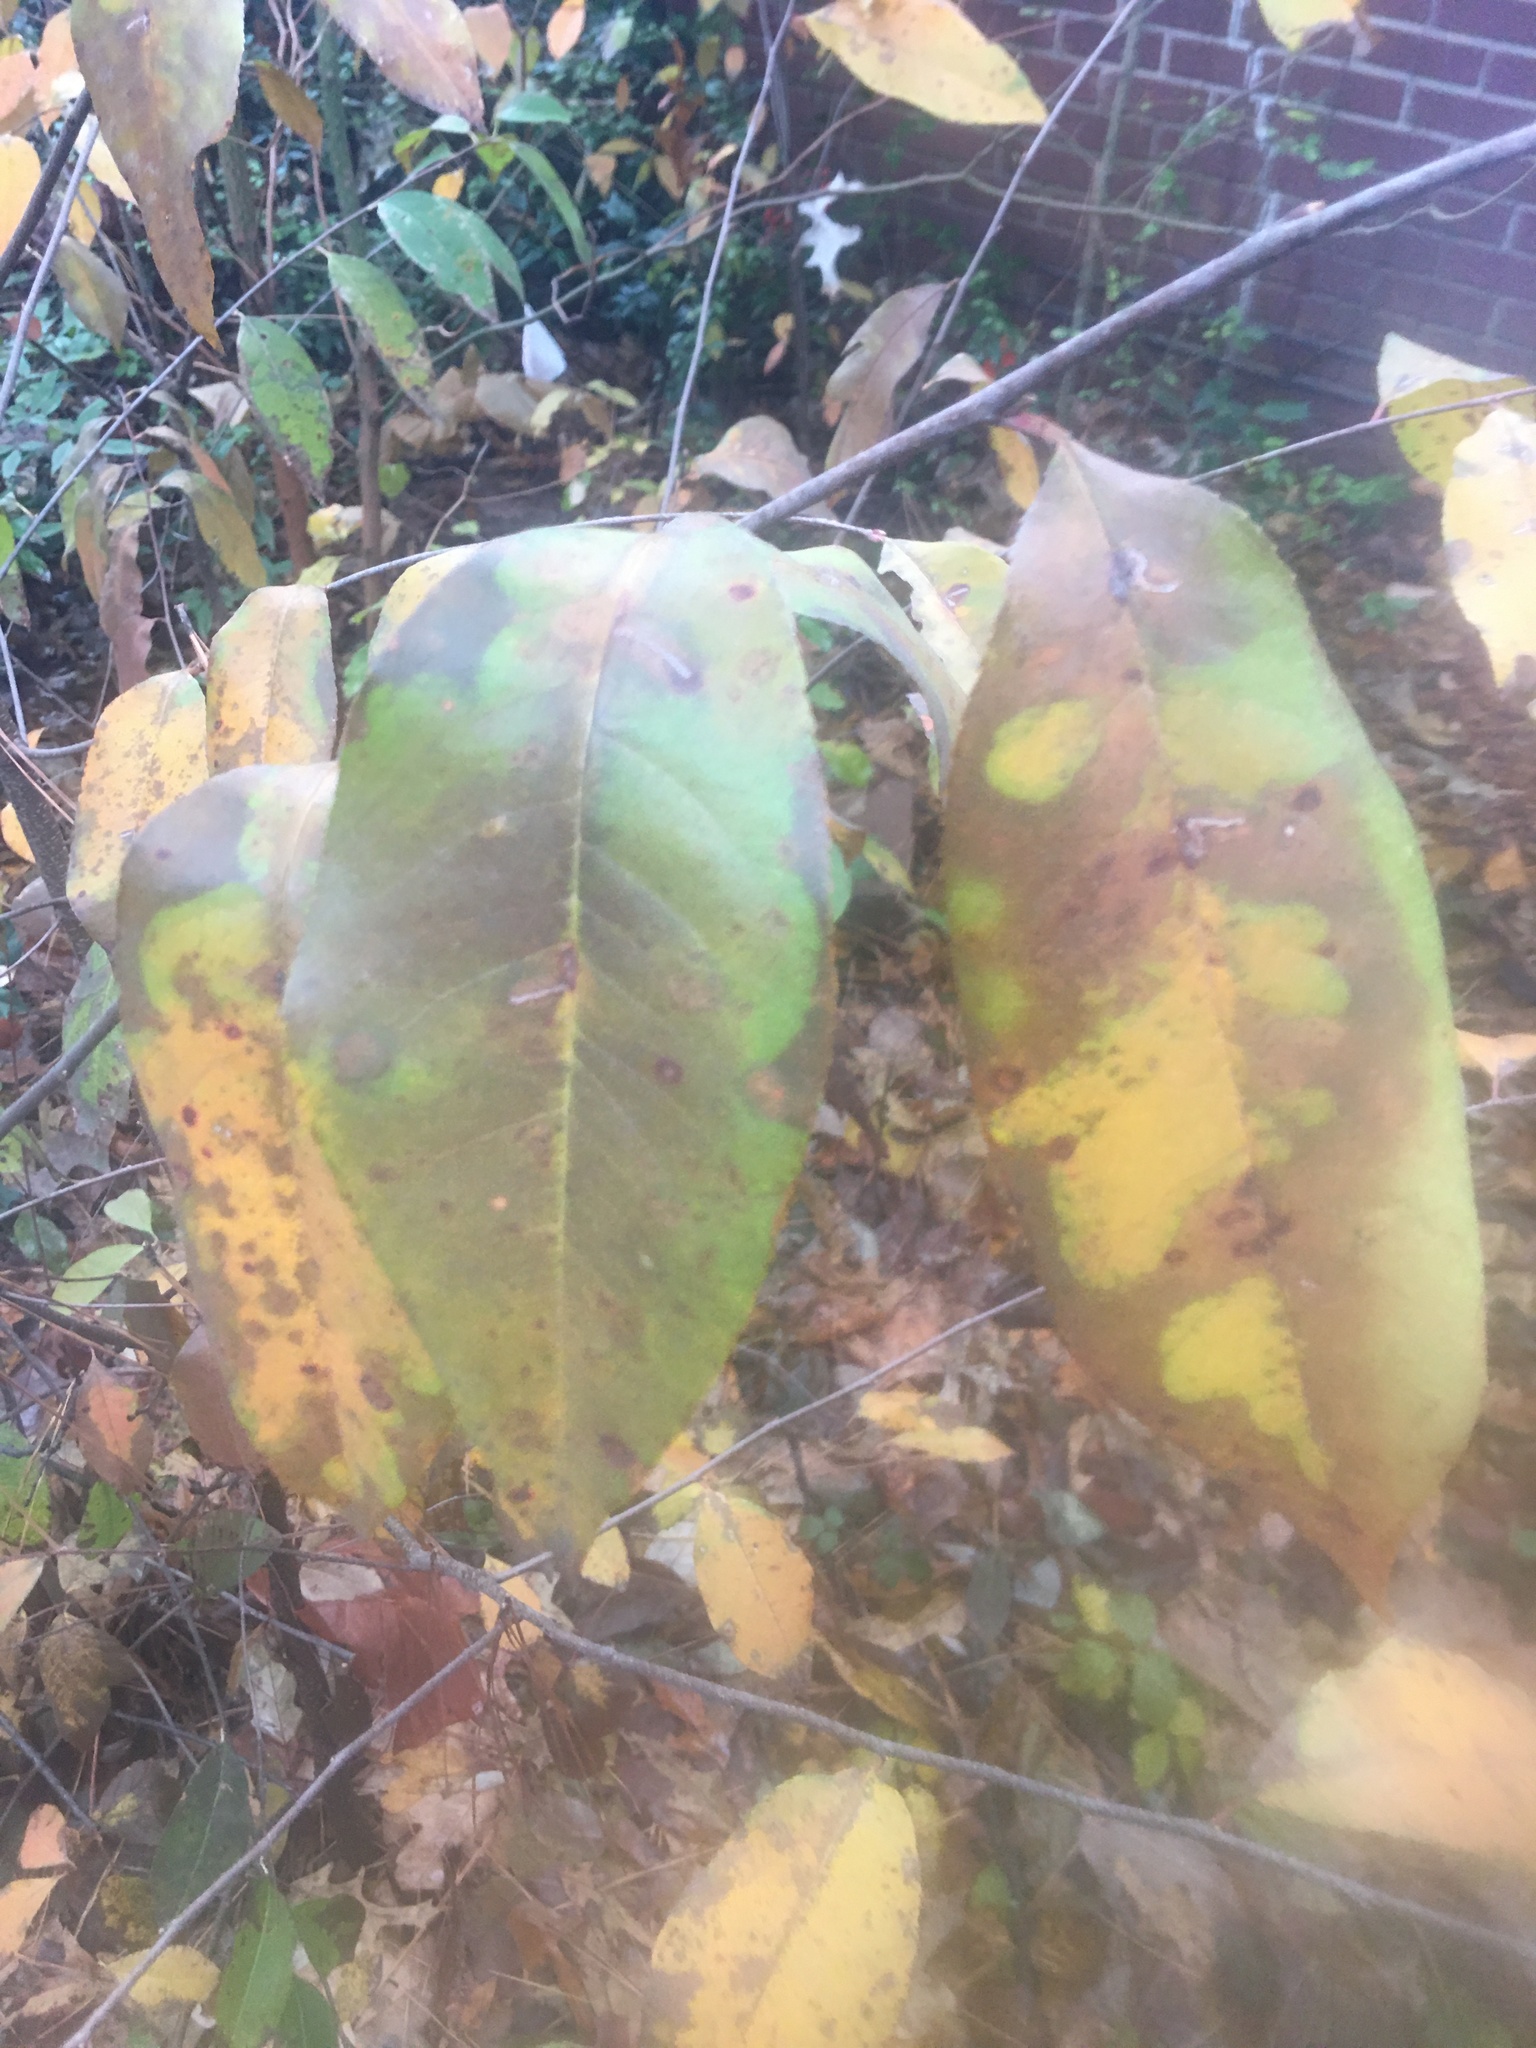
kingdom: Plantae
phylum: Tracheophyta
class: Magnoliopsida
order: Rosales
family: Rosaceae
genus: Prunus
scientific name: Prunus serotina
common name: Black cherry
